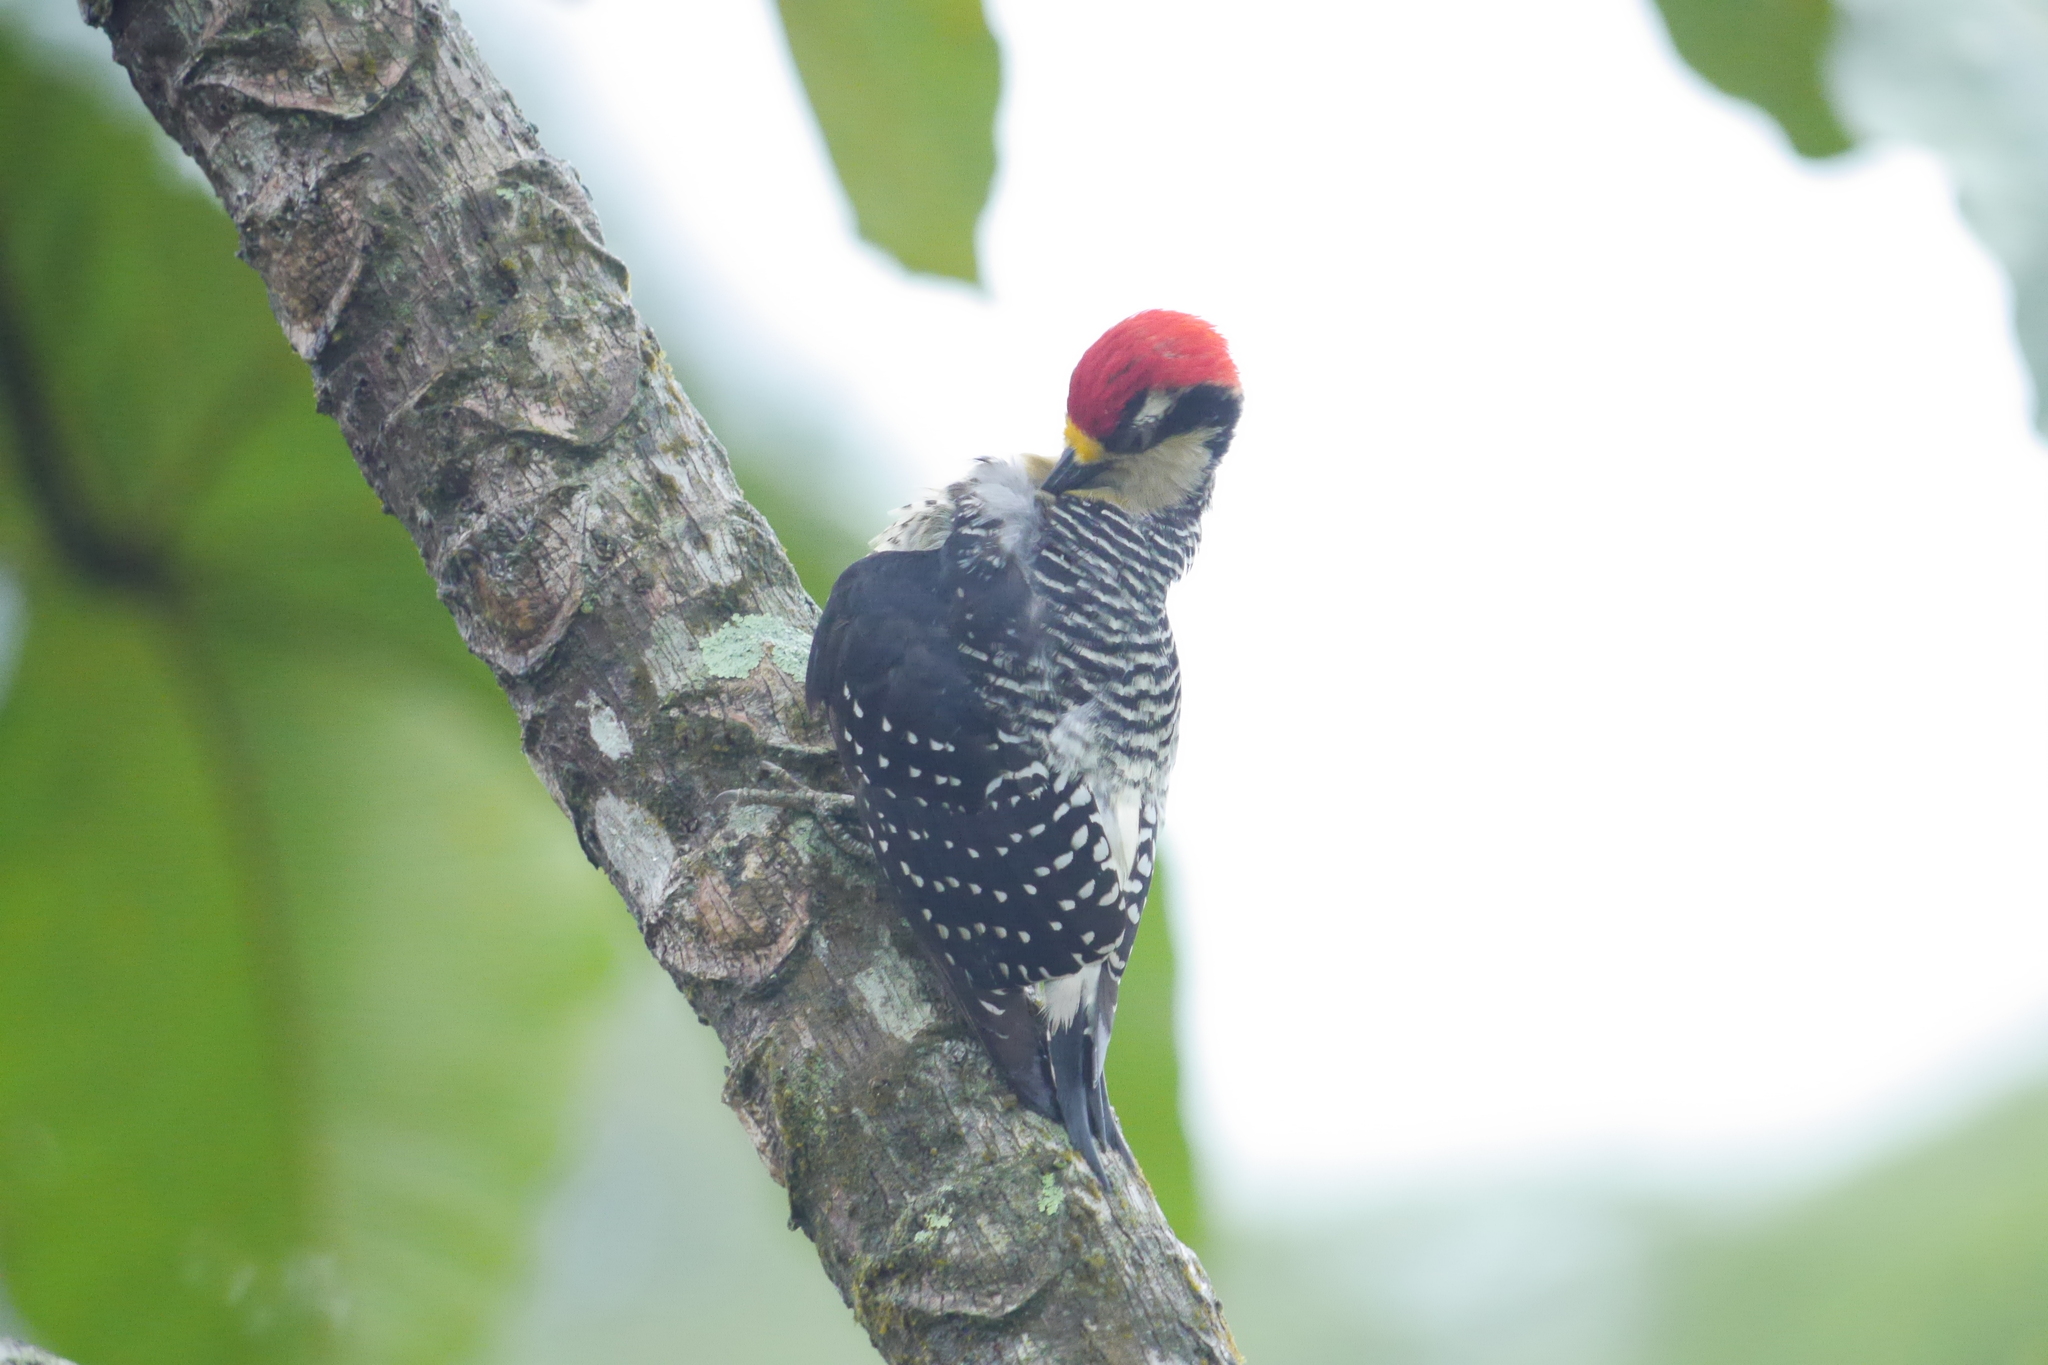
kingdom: Animalia
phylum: Chordata
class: Aves
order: Piciformes
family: Picidae
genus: Melanerpes
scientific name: Melanerpes pucherani
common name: Black-cheeked woodpecker
